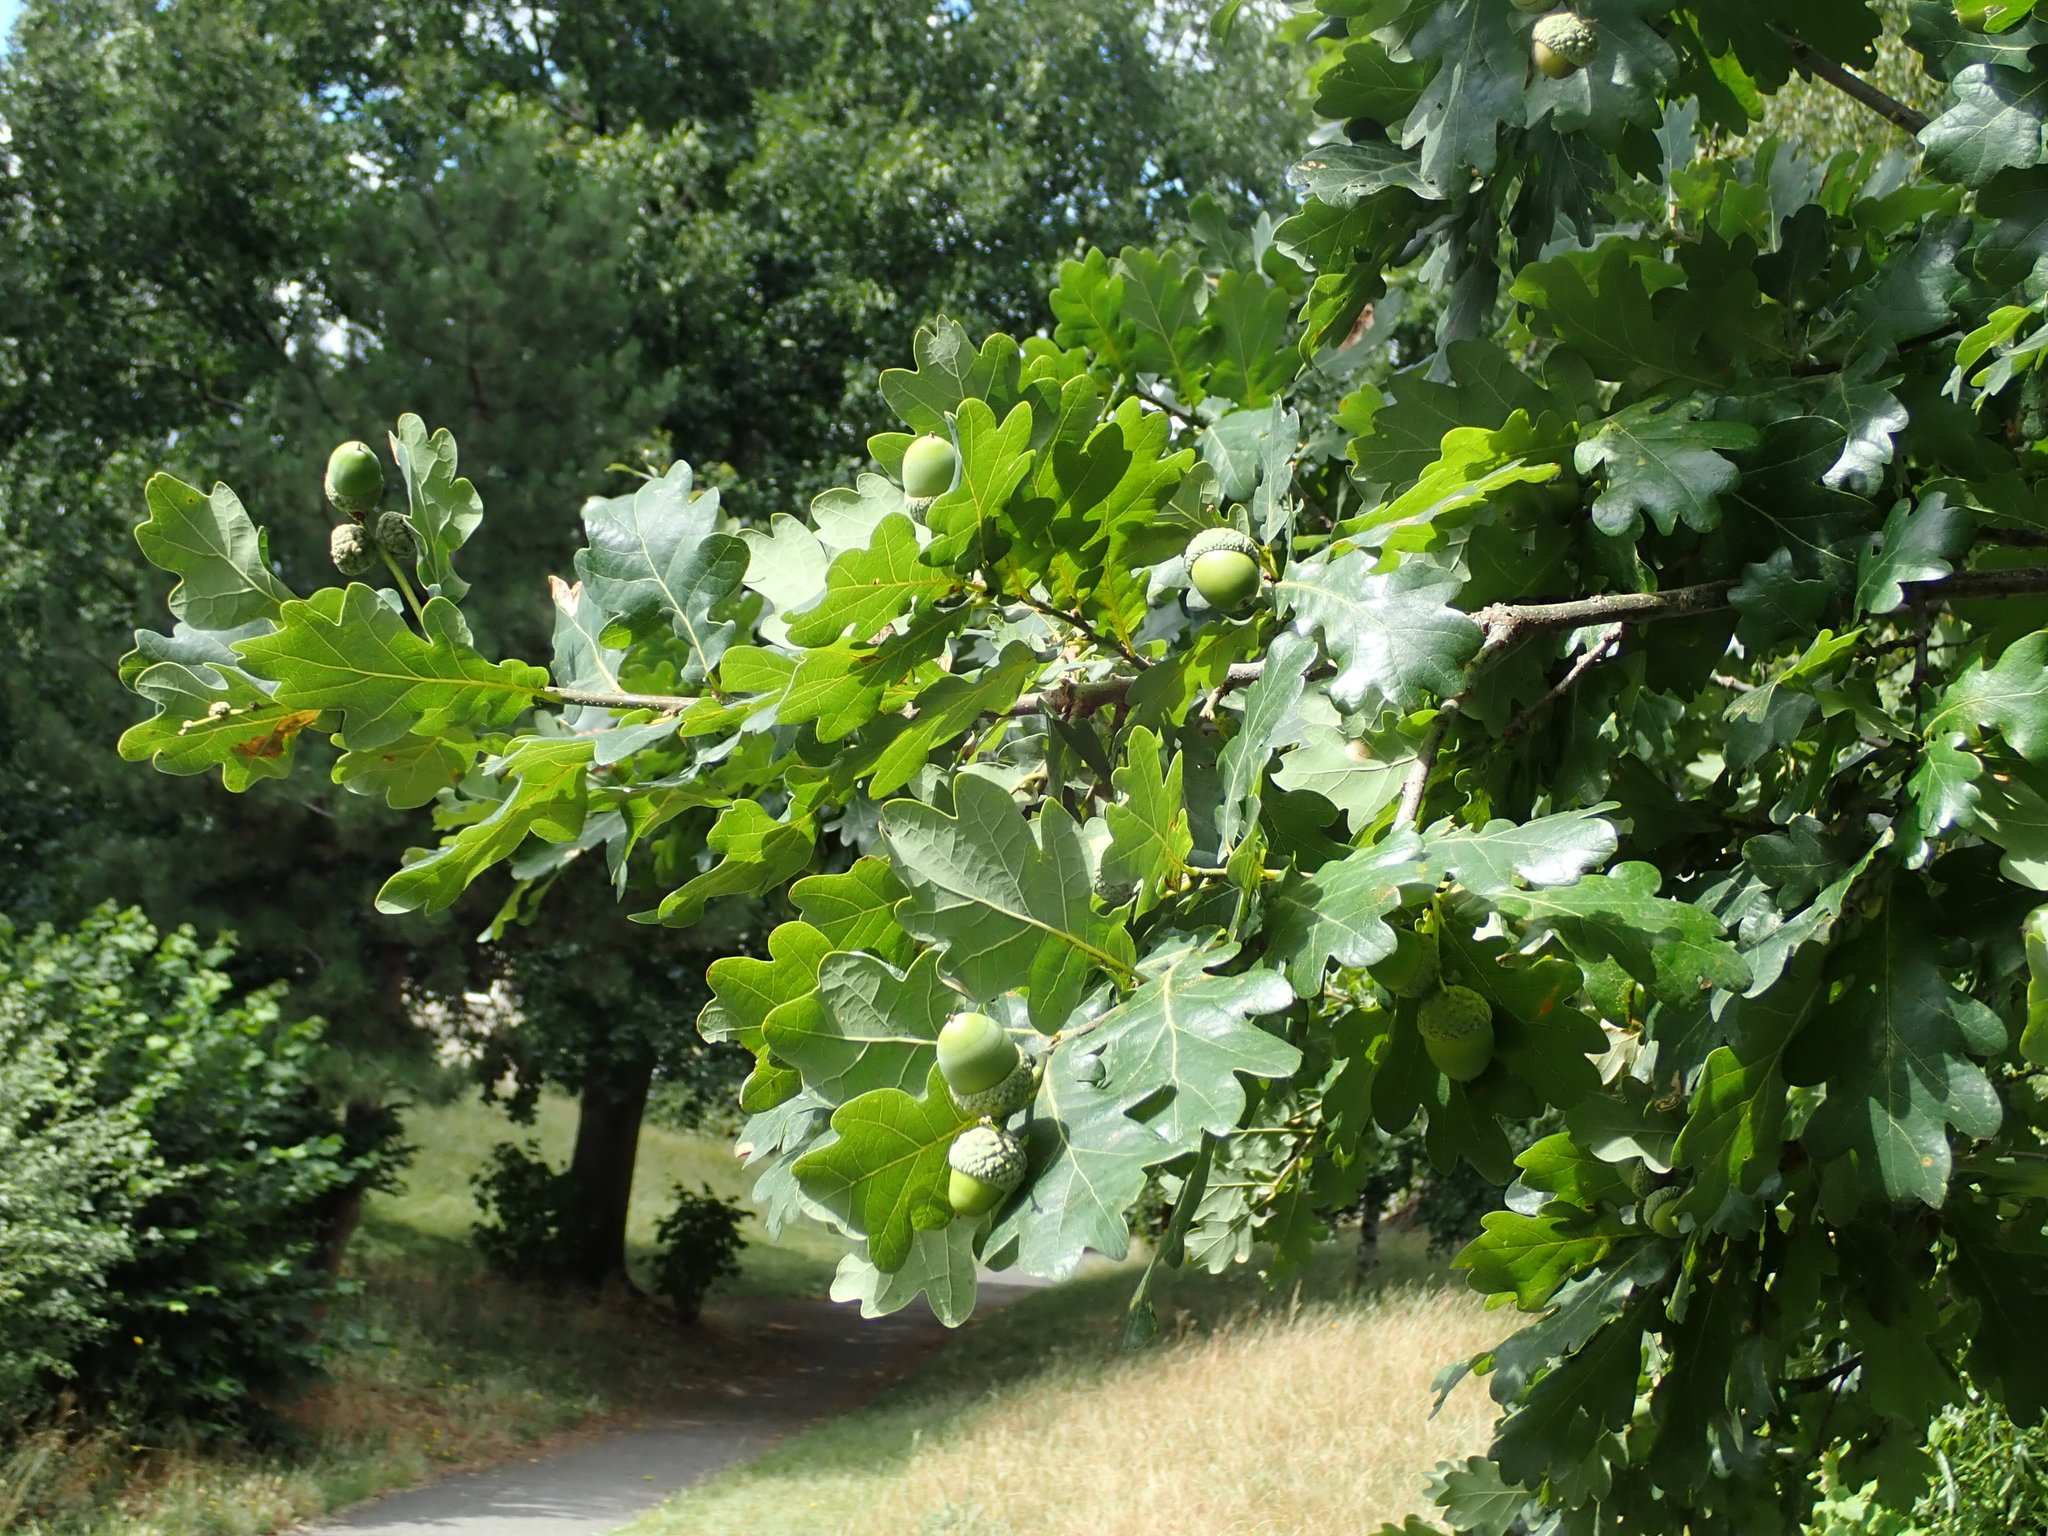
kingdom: Plantae
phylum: Tracheophyta
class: Magnoliopsida
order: Fagales
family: Fagaceae
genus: Quercus
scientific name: Quercus robur
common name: Pedunculate oak
